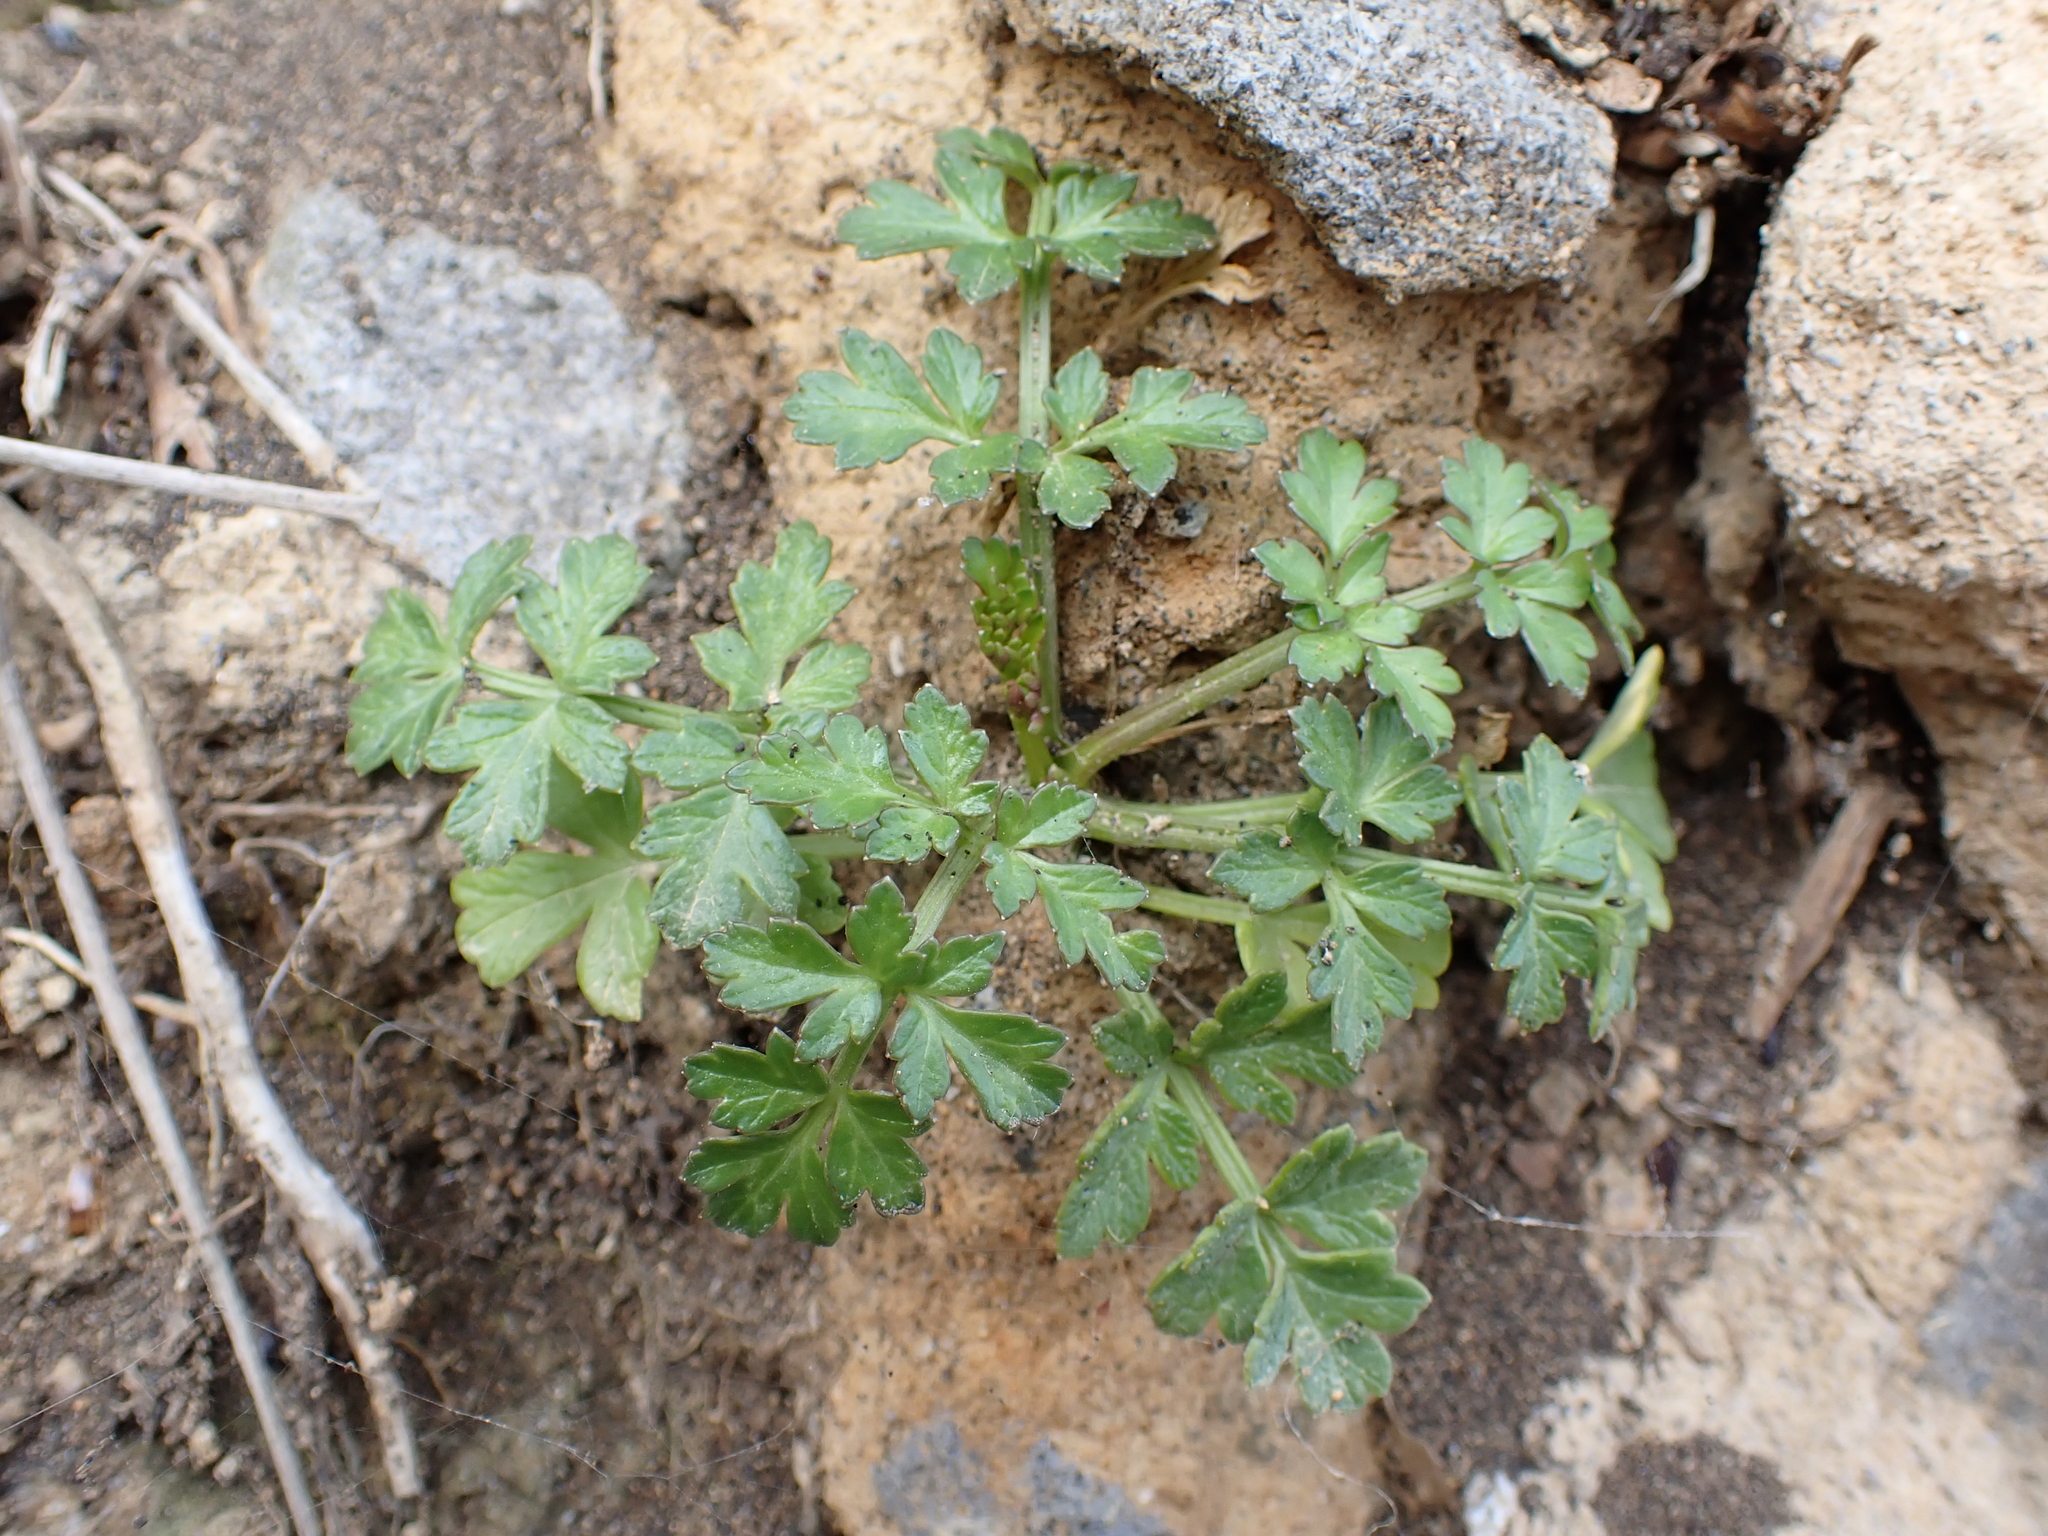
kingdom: Plantae
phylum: Tracheophyta
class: Magnoliopsida
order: Apiales
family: Apiaceae
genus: Apium
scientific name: Apium prostratum
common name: Prostrate marshwort
